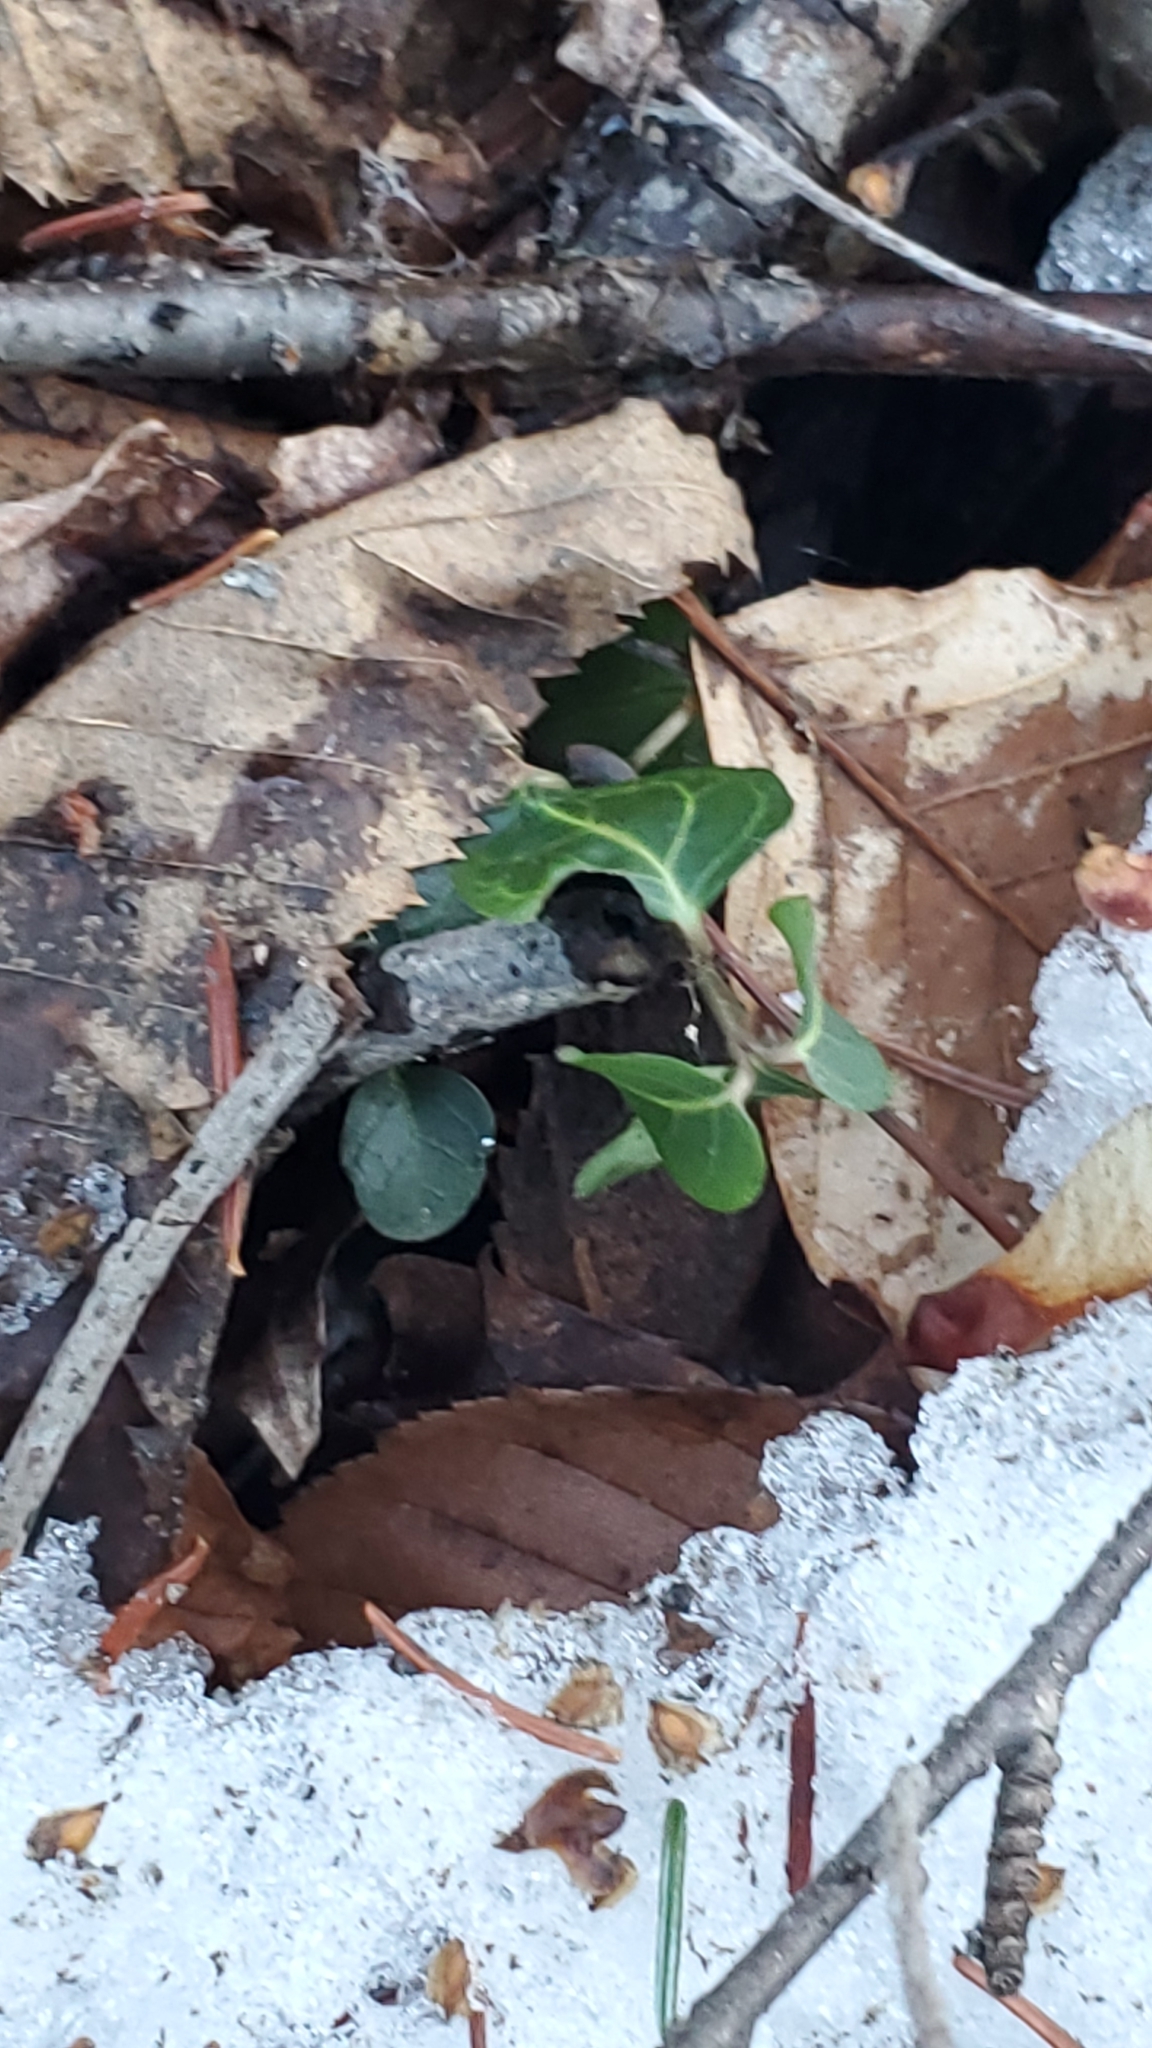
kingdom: Plantae
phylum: Tracheophyta
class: Magnoliopsida
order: Gentianales
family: Rubiaceae
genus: Mitchella
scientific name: Mitchella repens
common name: Partridge-berry
